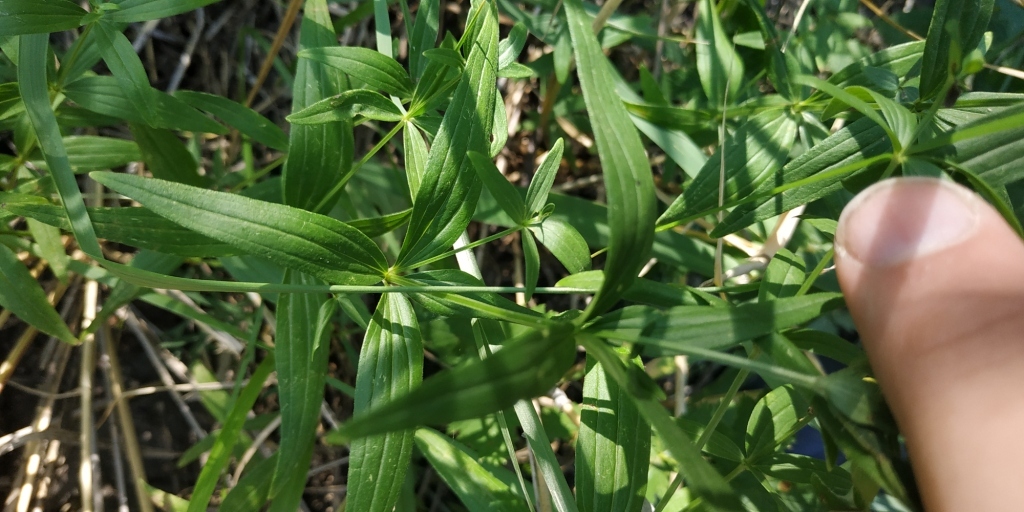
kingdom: Plantae
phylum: Tracheophyta
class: Magnoliopsida
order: Gentianales
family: Rubiaceae
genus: Galium
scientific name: Galium boreale
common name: Northern bedstraw
